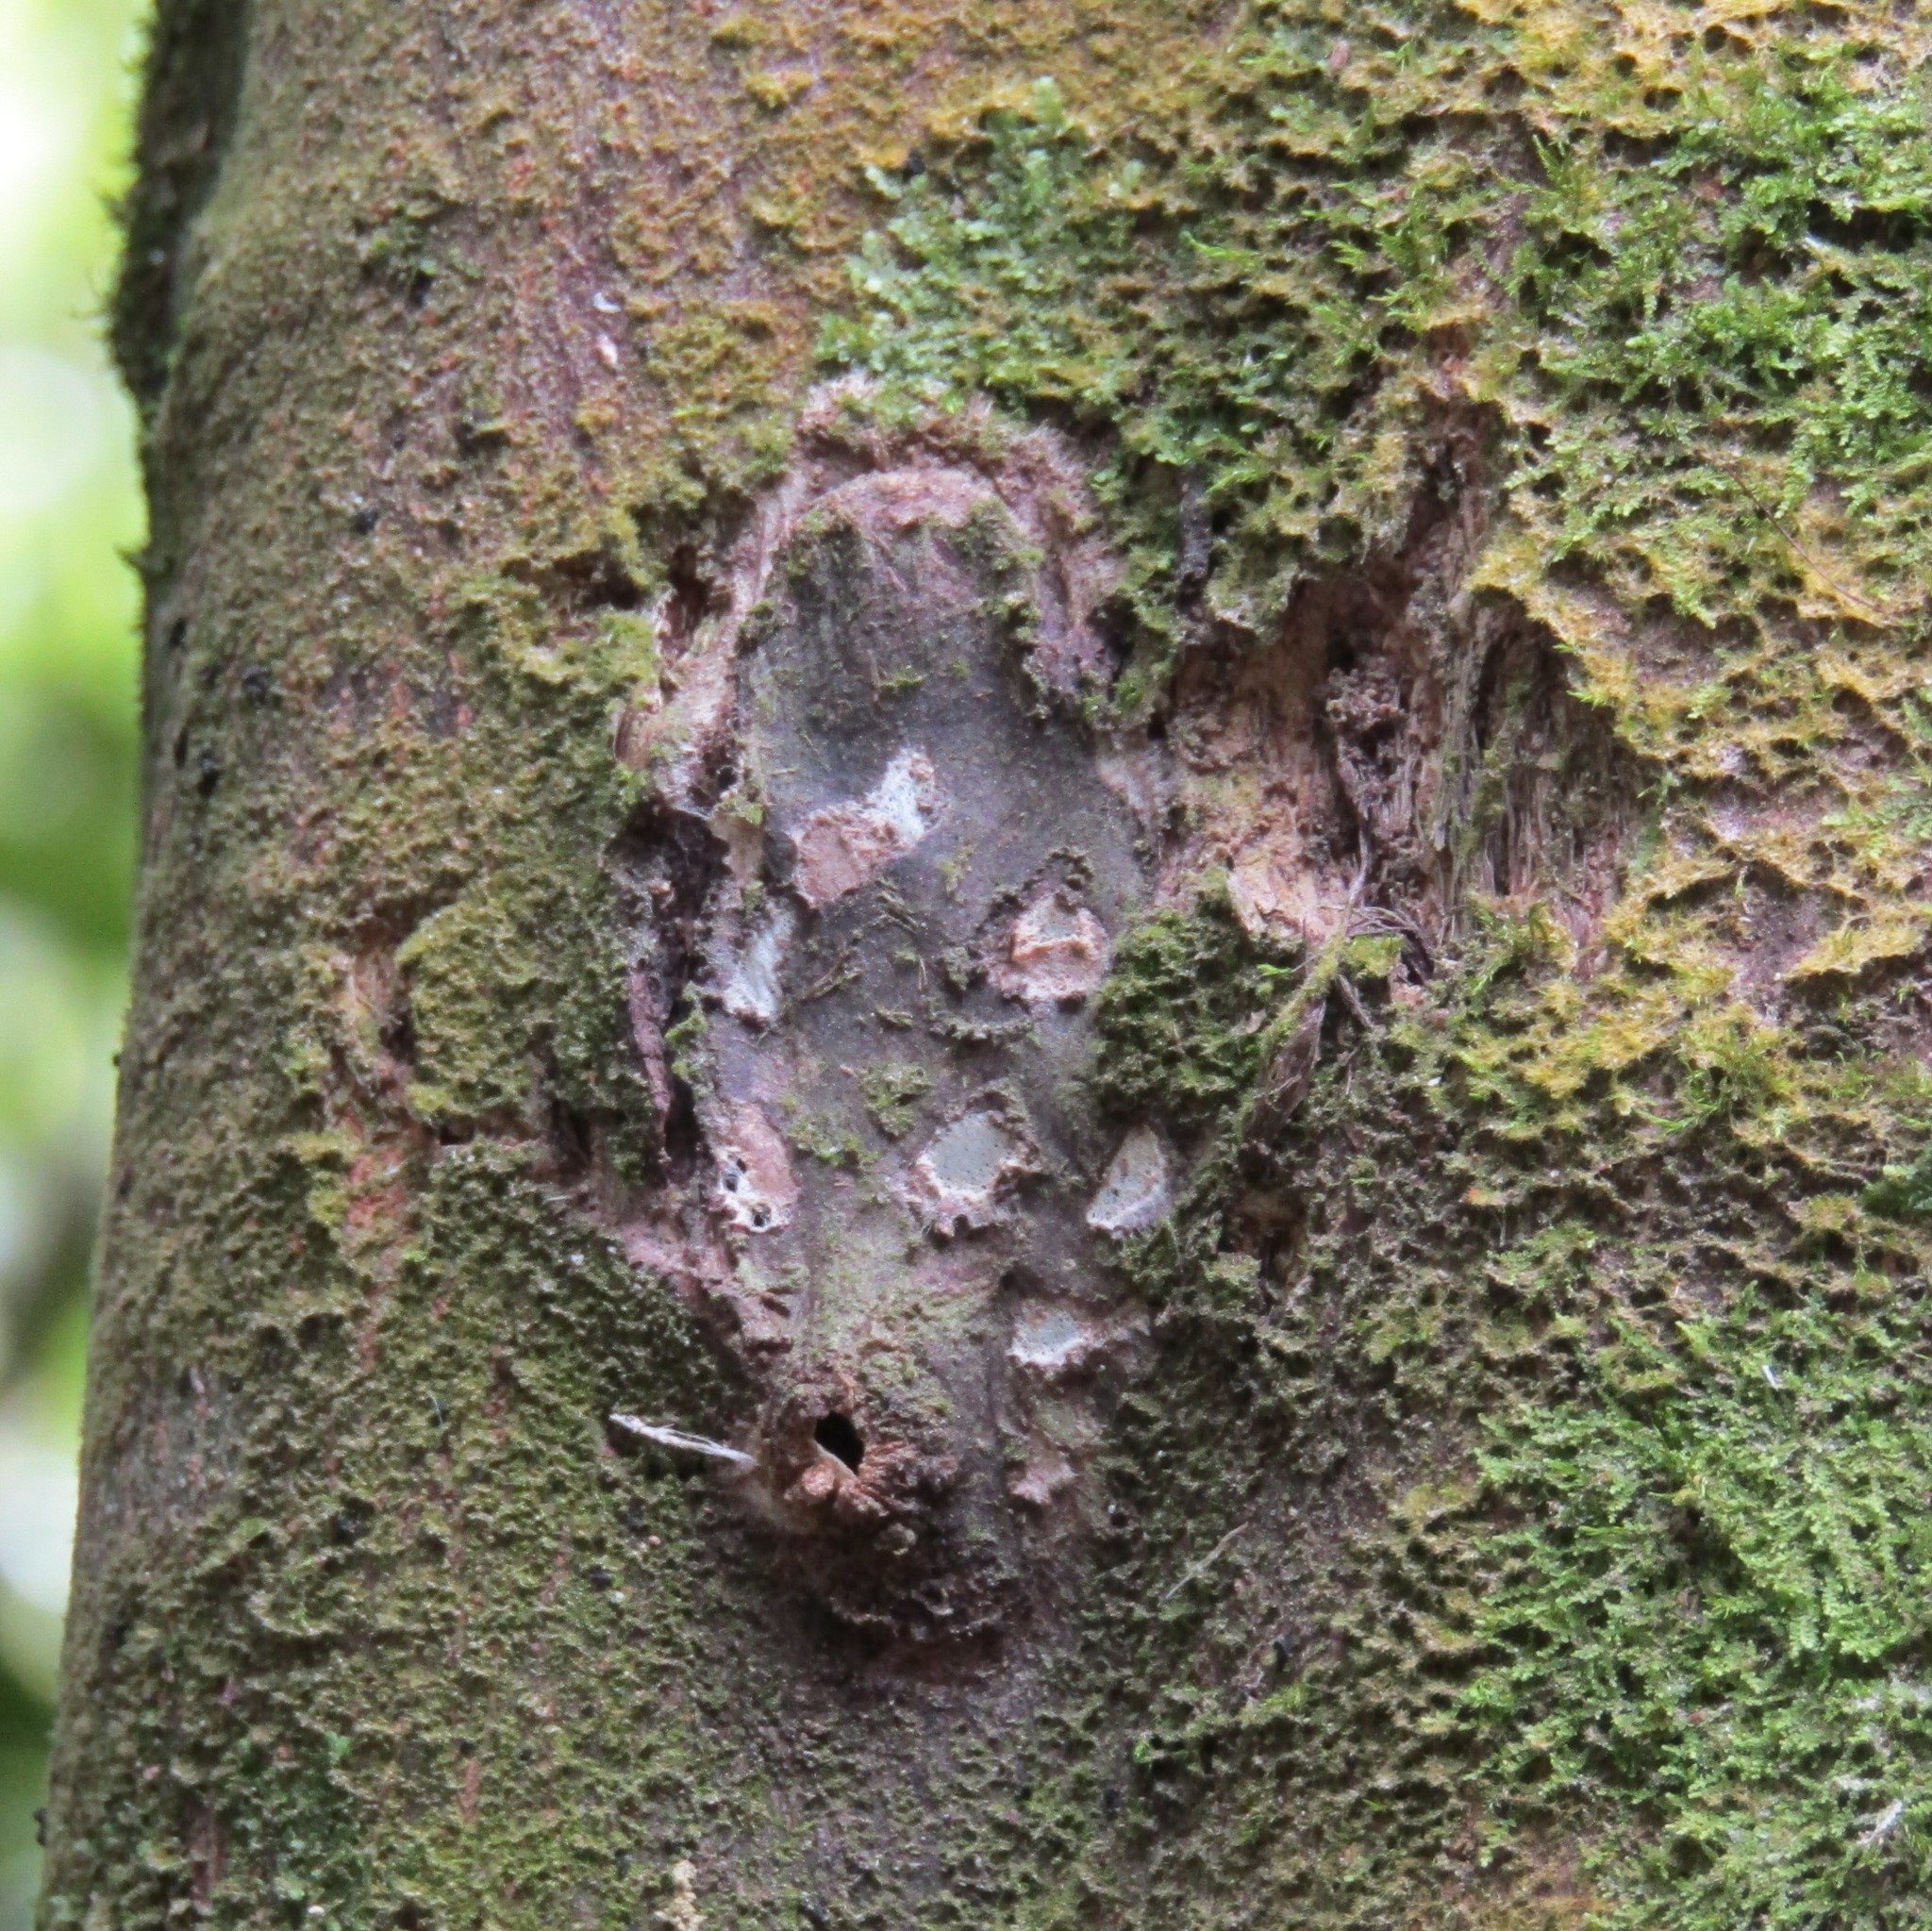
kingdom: Animalia
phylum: Arthropoda
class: Insecta
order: Lepidoptera
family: Hepialidae
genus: Aenetus
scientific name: Aenetus virescens
